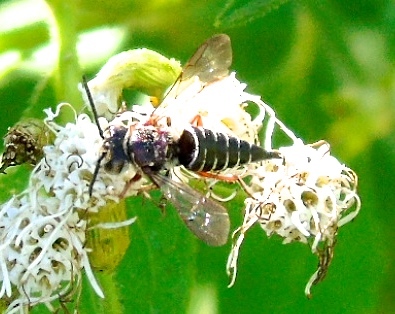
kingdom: Animalia
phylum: Arthropoda
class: Insecta
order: Hymenoptera
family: Megachilidae
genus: Coelioxys
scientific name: Coelioxys
